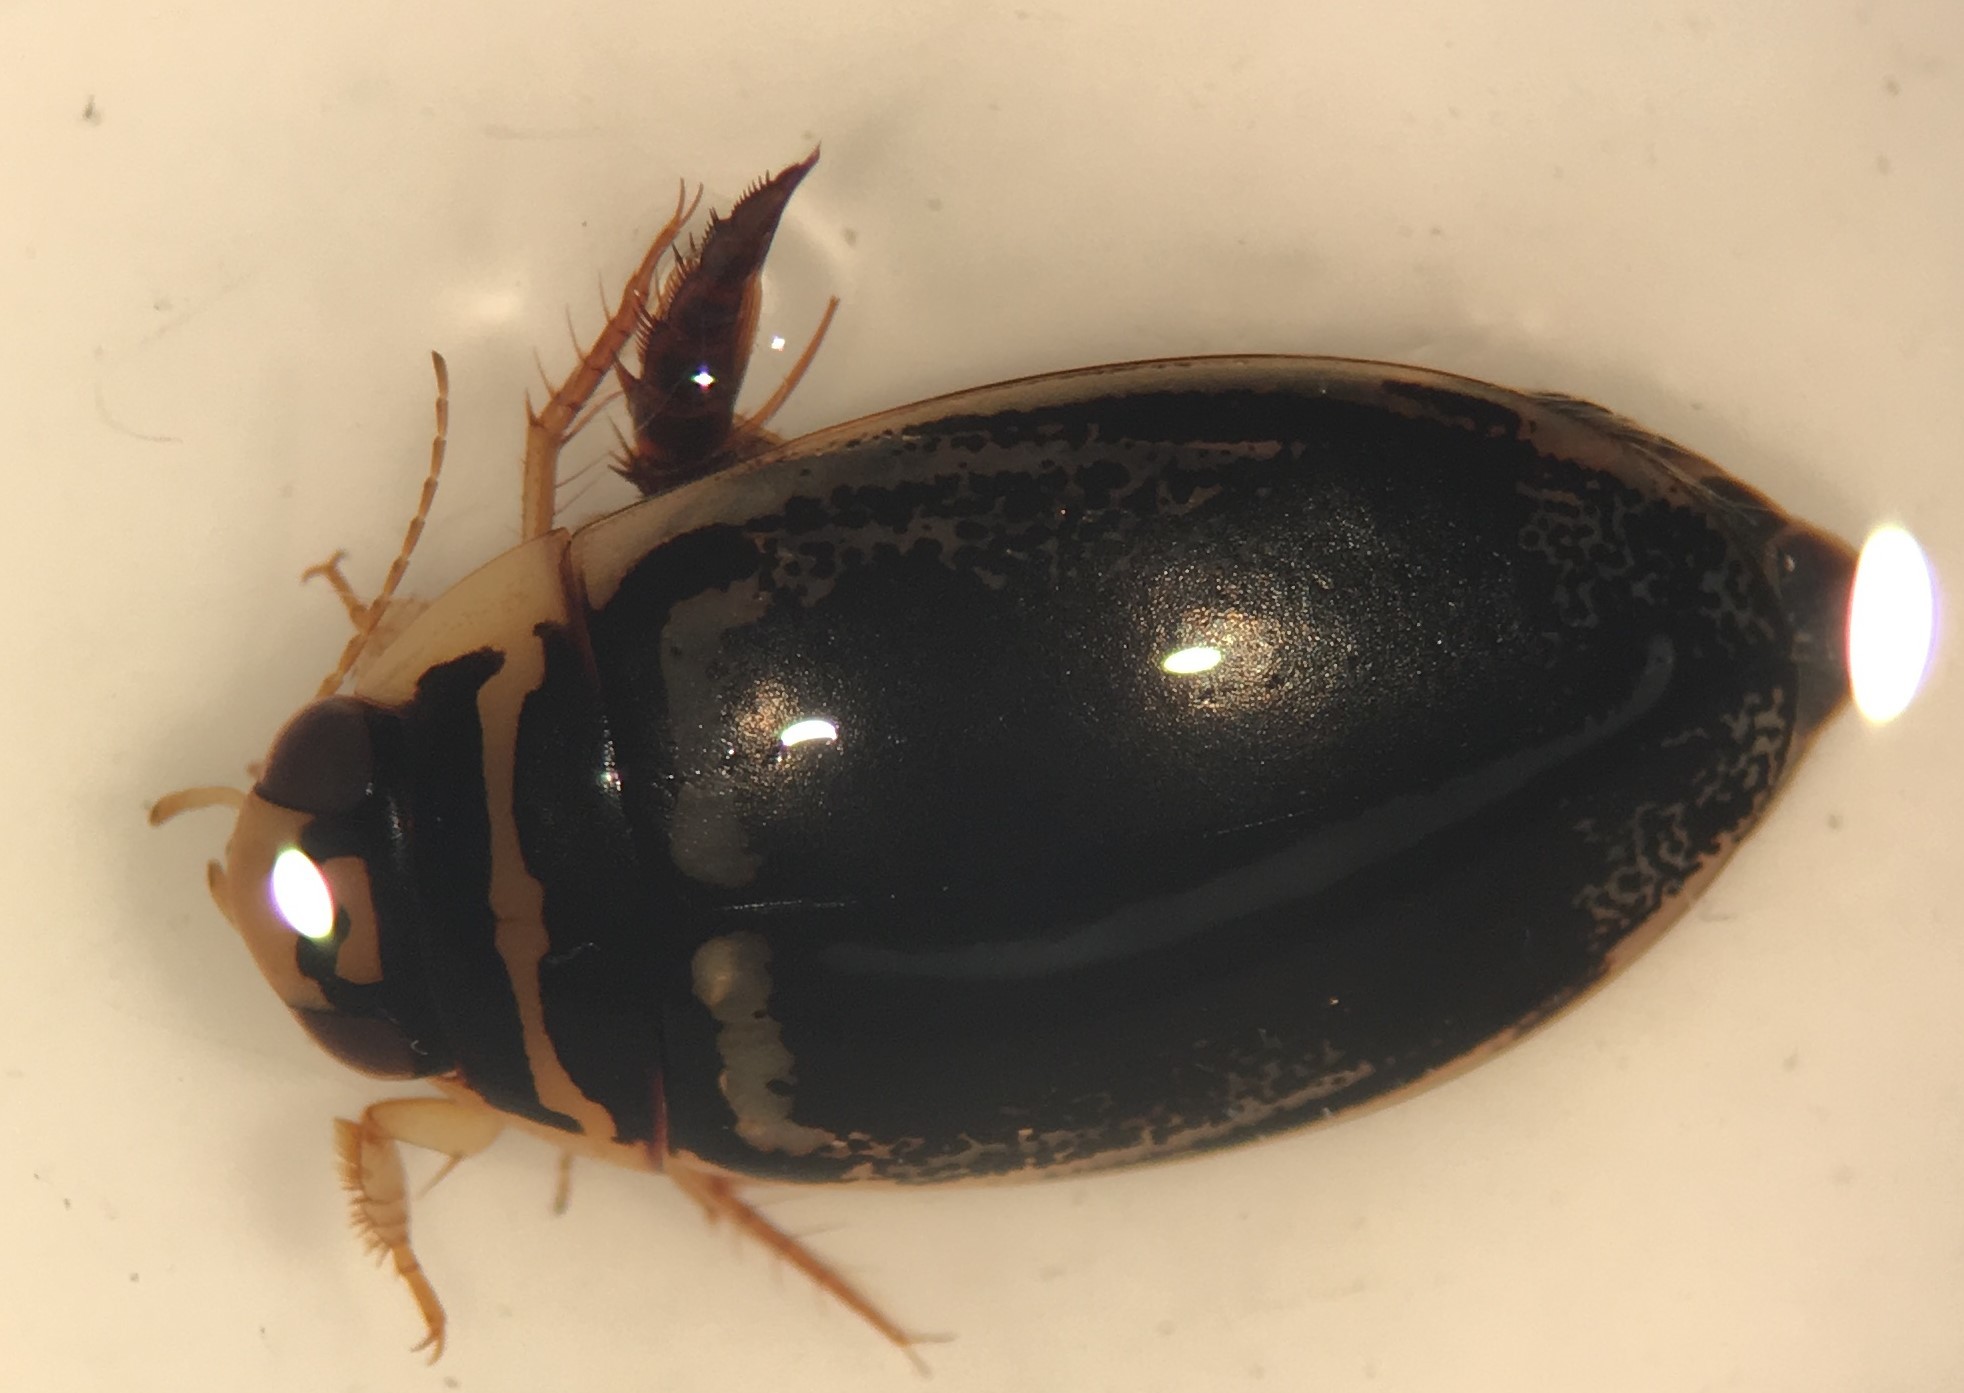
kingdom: Animalia
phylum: Arthropoda
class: Insecta
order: Coleoptera
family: Dytiscidae
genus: Thermonectus
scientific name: Thermonectus basillaris
